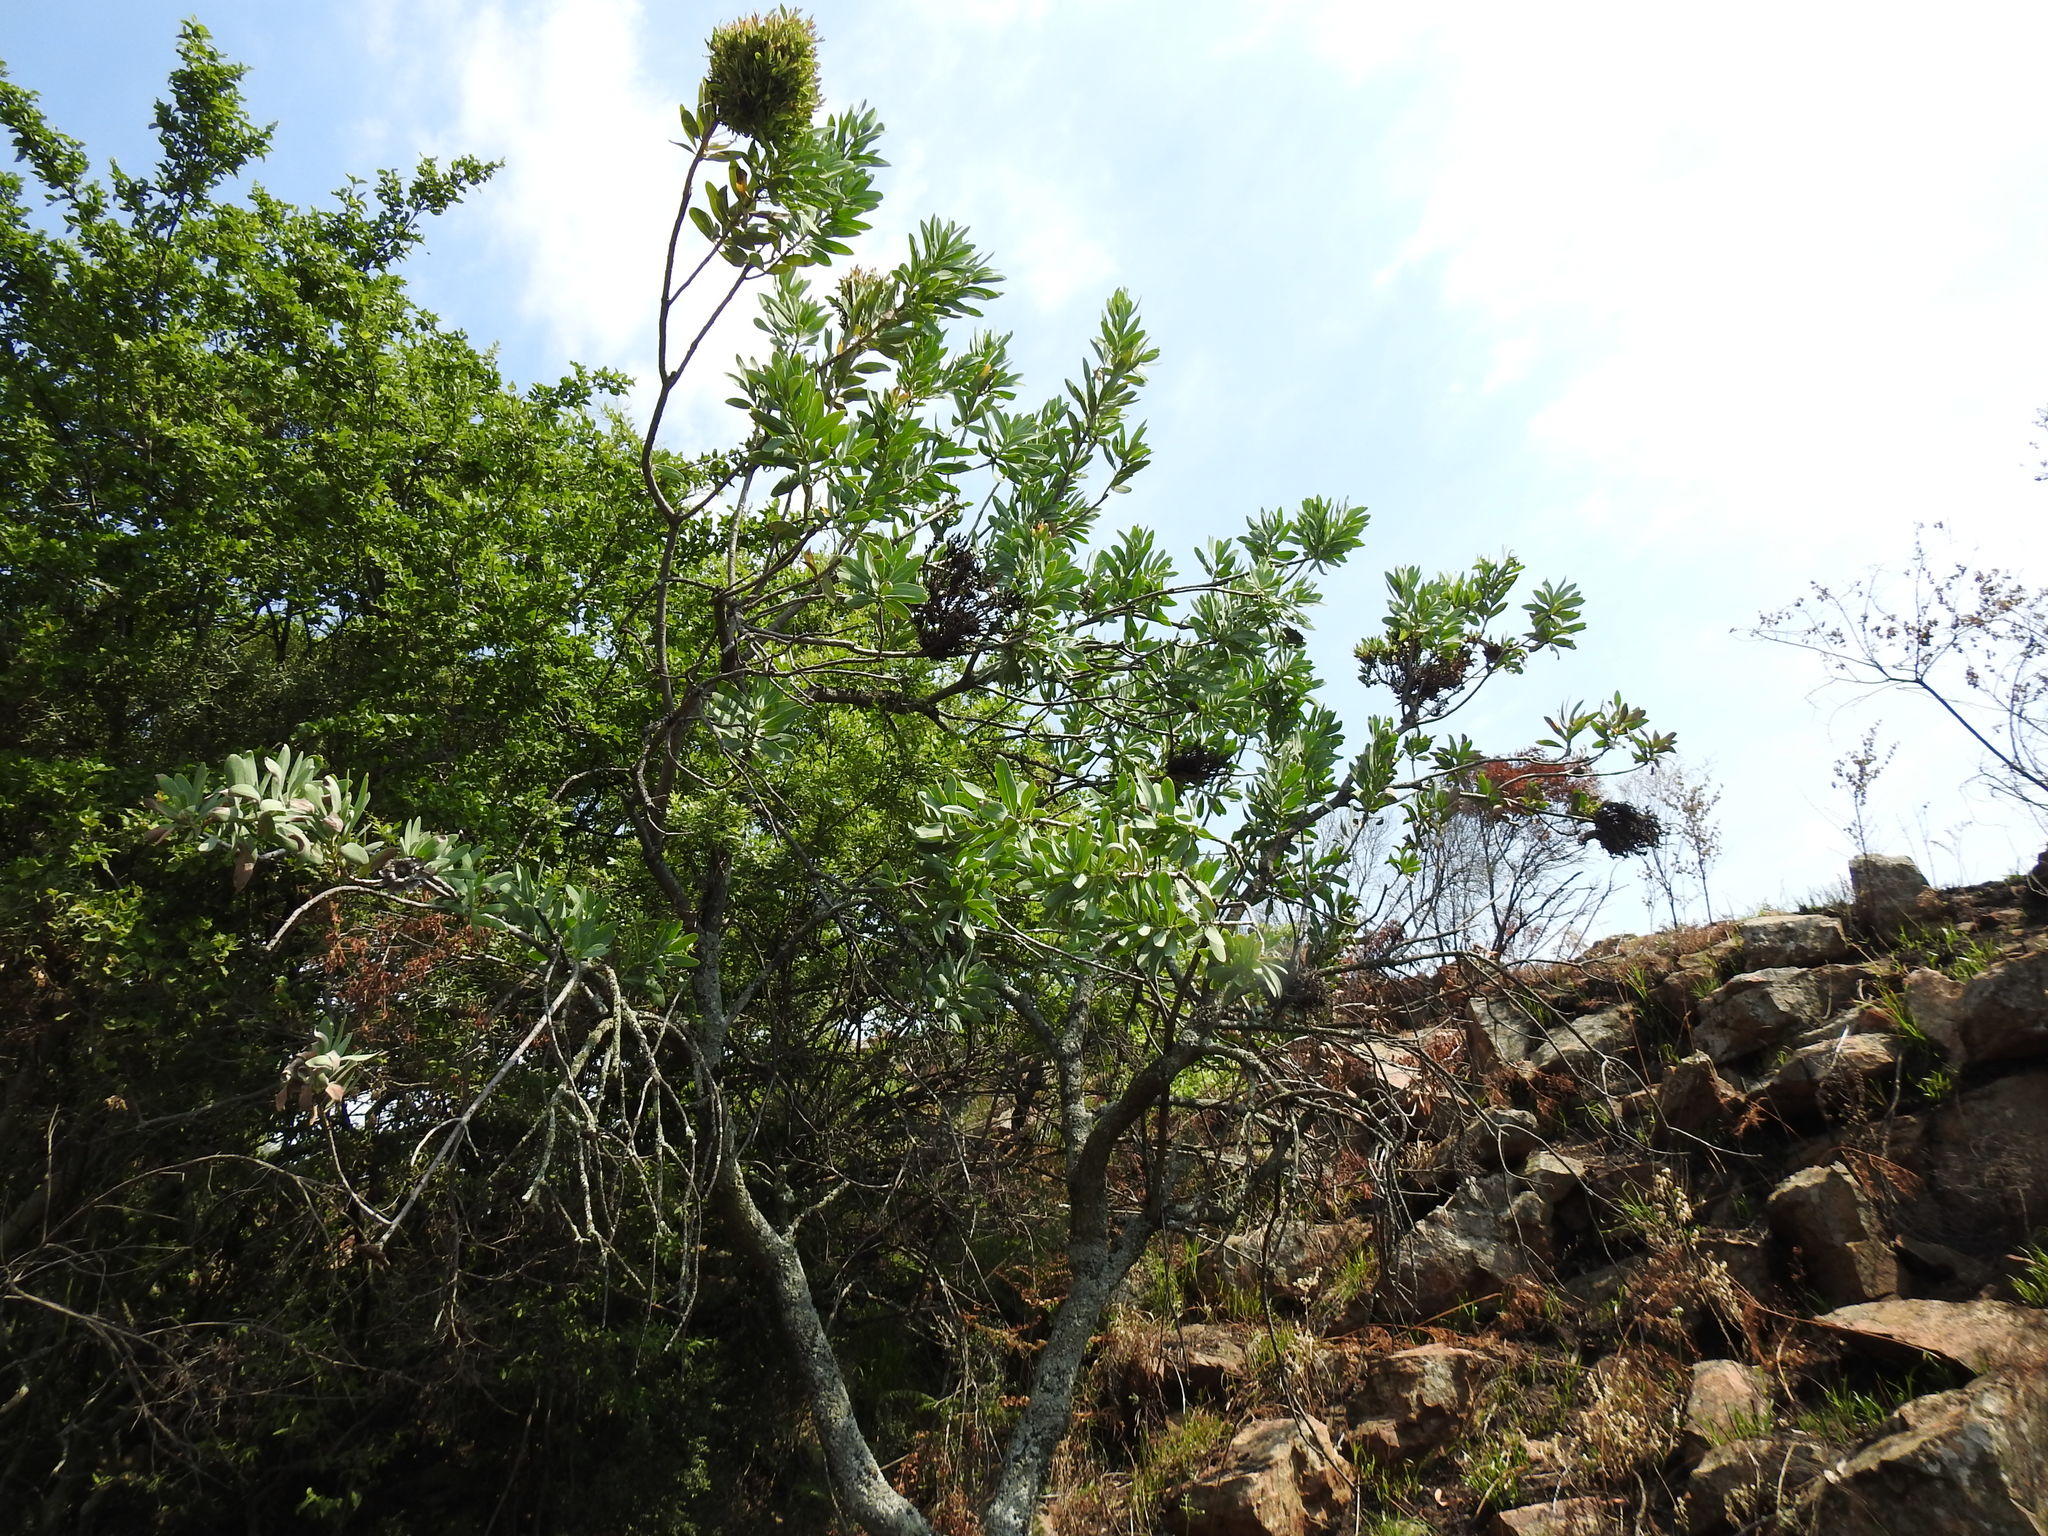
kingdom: Bacteria
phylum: Firmicutes
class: Bacilli
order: Acholeplasmatales
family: Acholeplasmataceae
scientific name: Acholeplasmataceae
